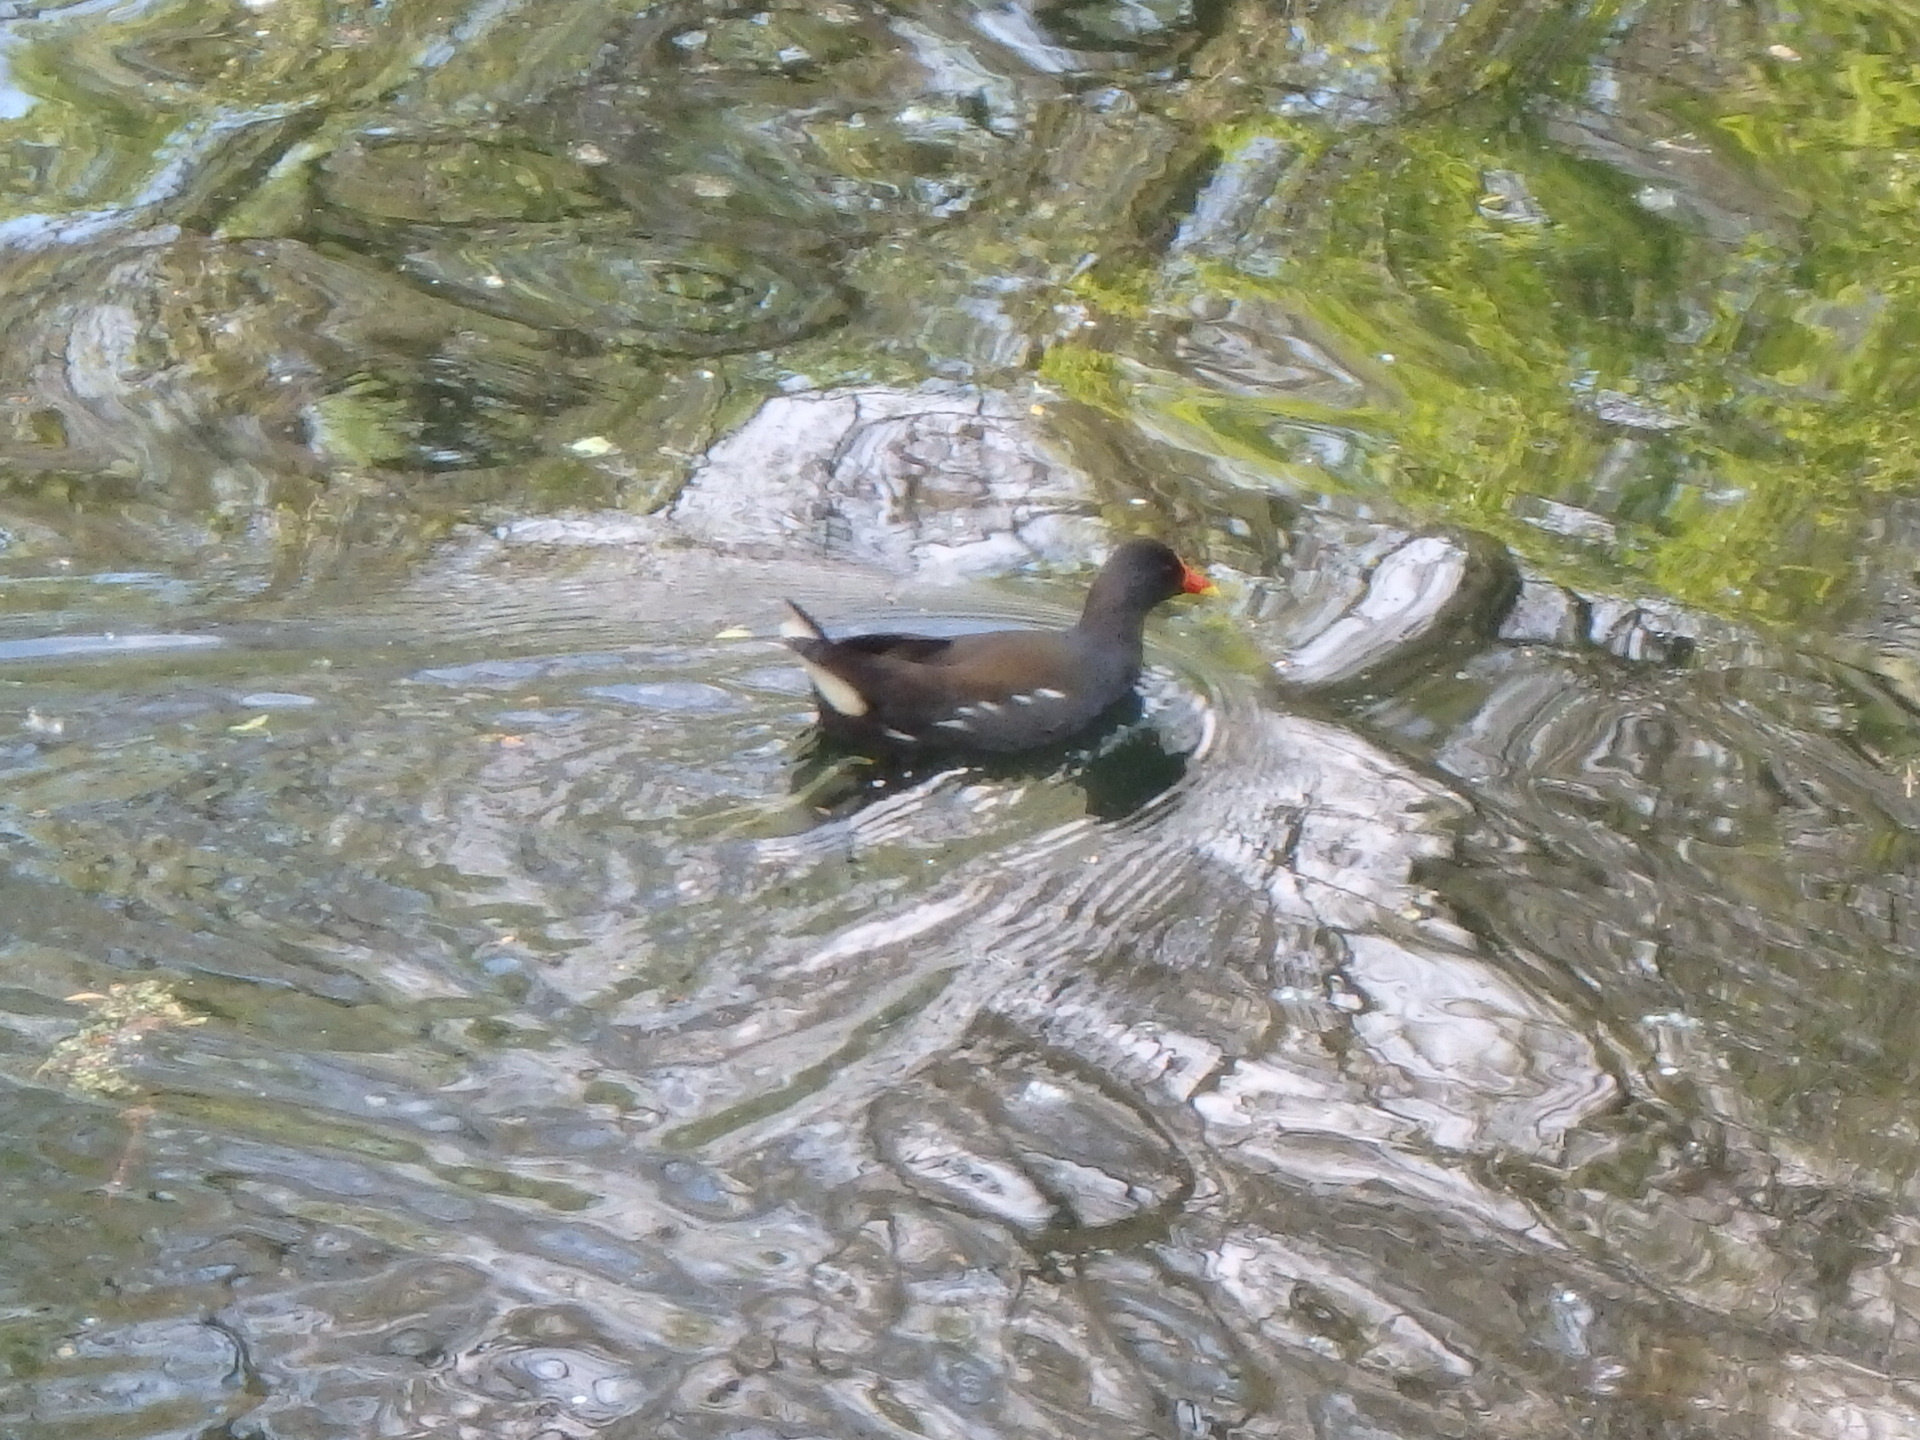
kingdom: Animalia
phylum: Chordata
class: Aves
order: Gruiformes
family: Rallidae
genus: Gallinula
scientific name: Gallinula chloropus
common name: Common moorhen
